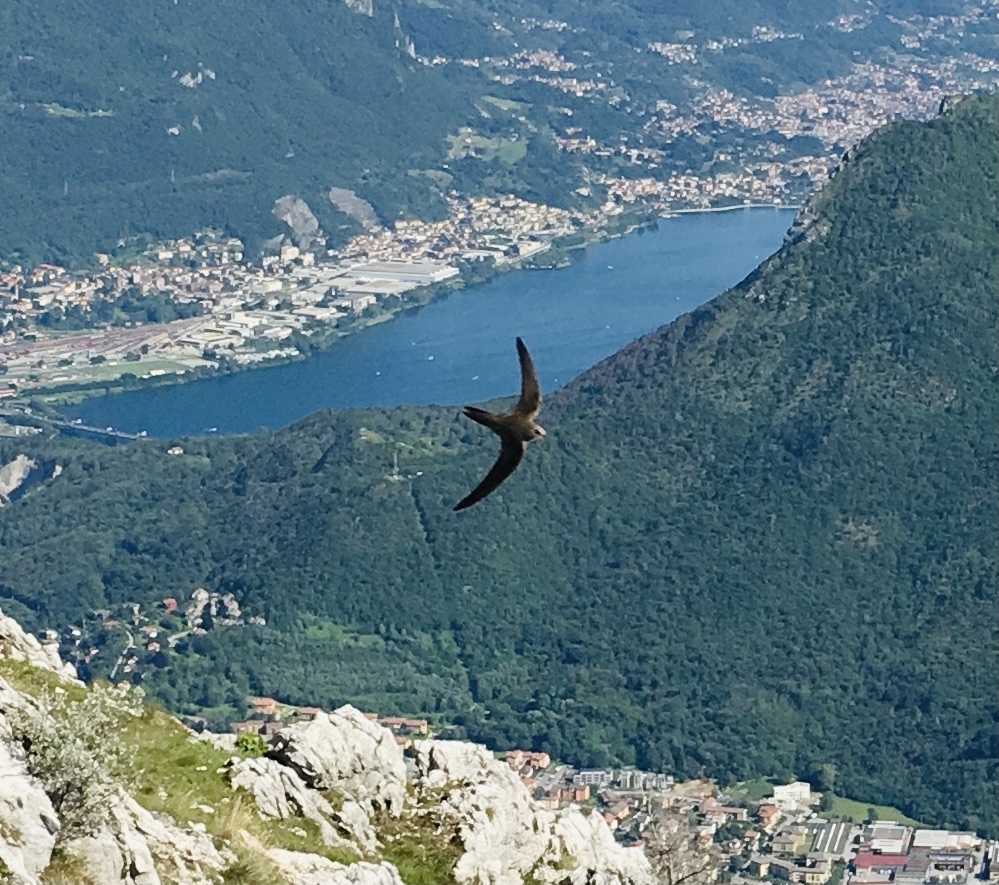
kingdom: Animalia
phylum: Chordata
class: Aves
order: Apodiformes
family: Apodidae
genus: Tachymarptis
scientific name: Tachymarptis melba
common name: Alpine swift
